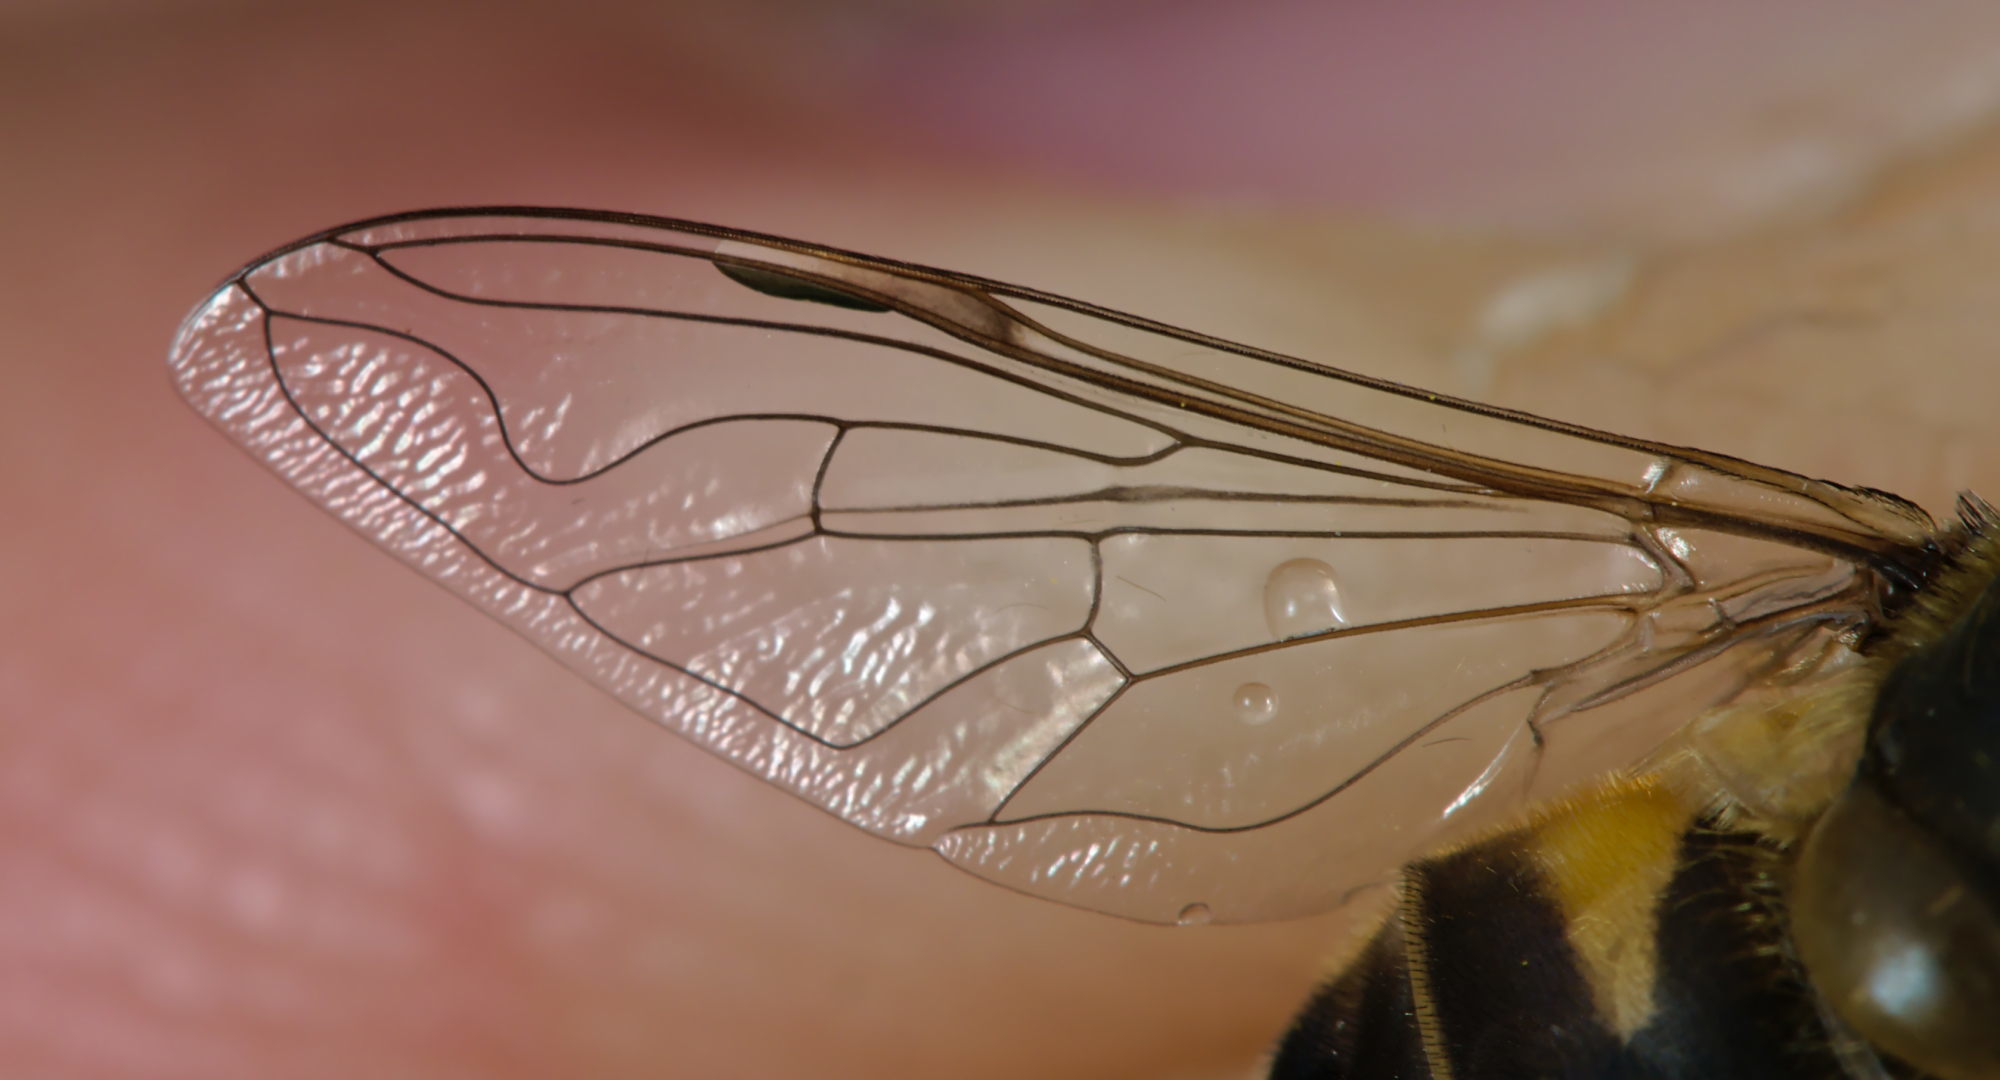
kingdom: Animalia
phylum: Arthropoda
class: Insecta
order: Diptera
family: Syrphidae
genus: Eristalis
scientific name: Eristalis pertinax
